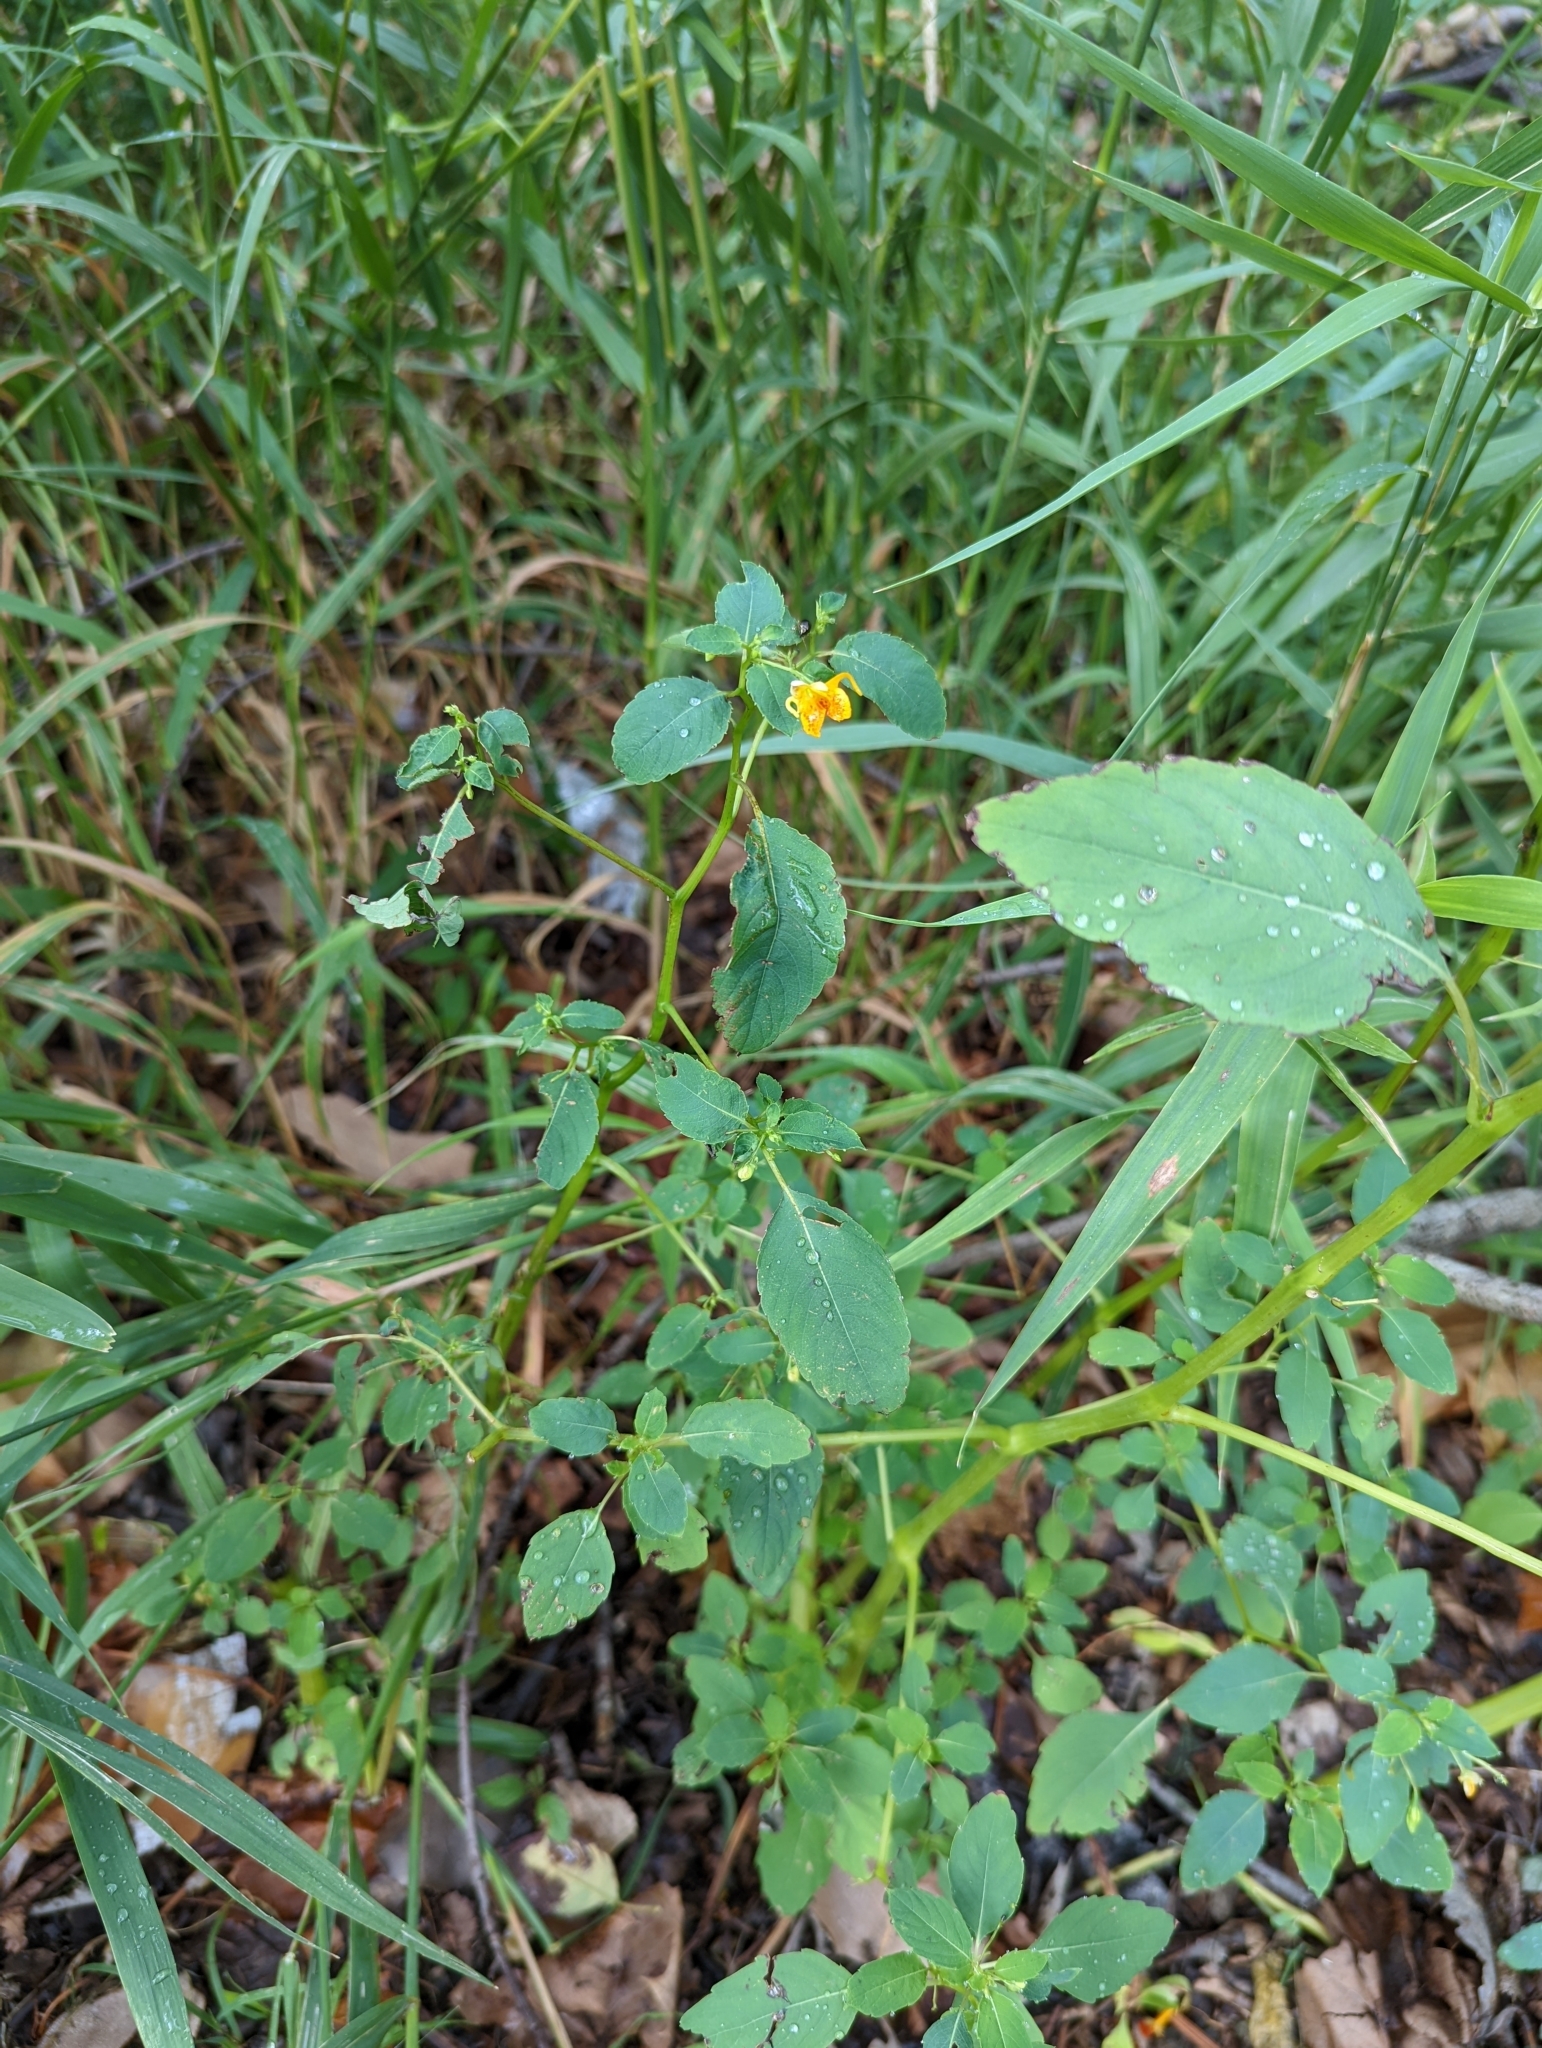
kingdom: Plantae
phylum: Tracheophyta
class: Magnoliopsida
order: Ericales
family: Balsaminaceae
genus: Impatiens
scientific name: Impatiens capensis
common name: Orange balsam
